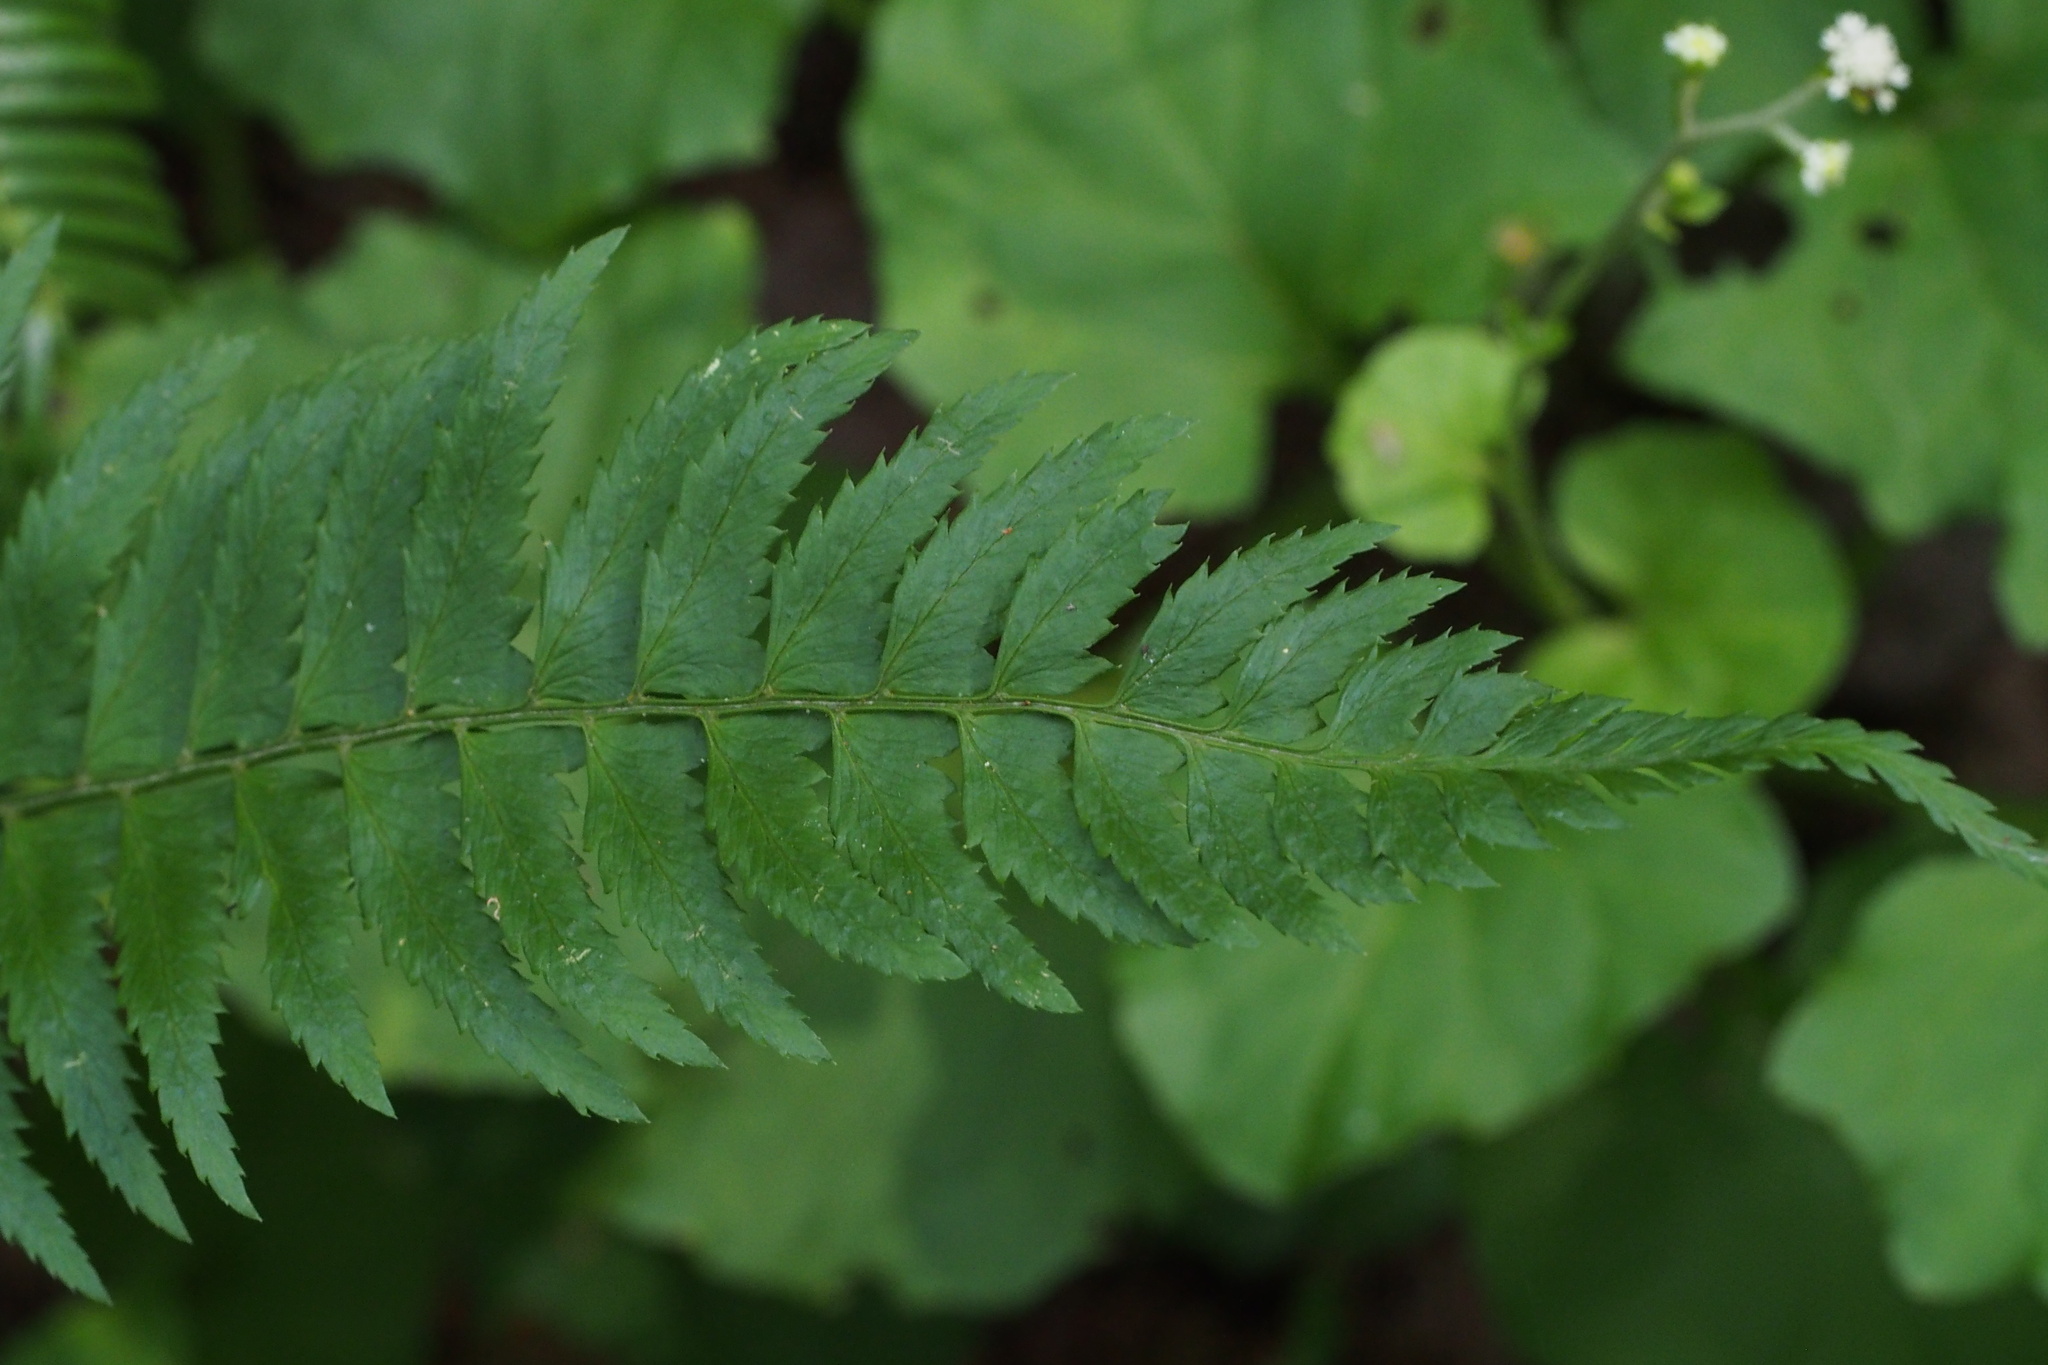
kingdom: Plantae
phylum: Tracheophyta
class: Polypodiopsida
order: Polypodiales
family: Dryopteridaceae
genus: Polystichum
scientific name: Polystichum tripteron
